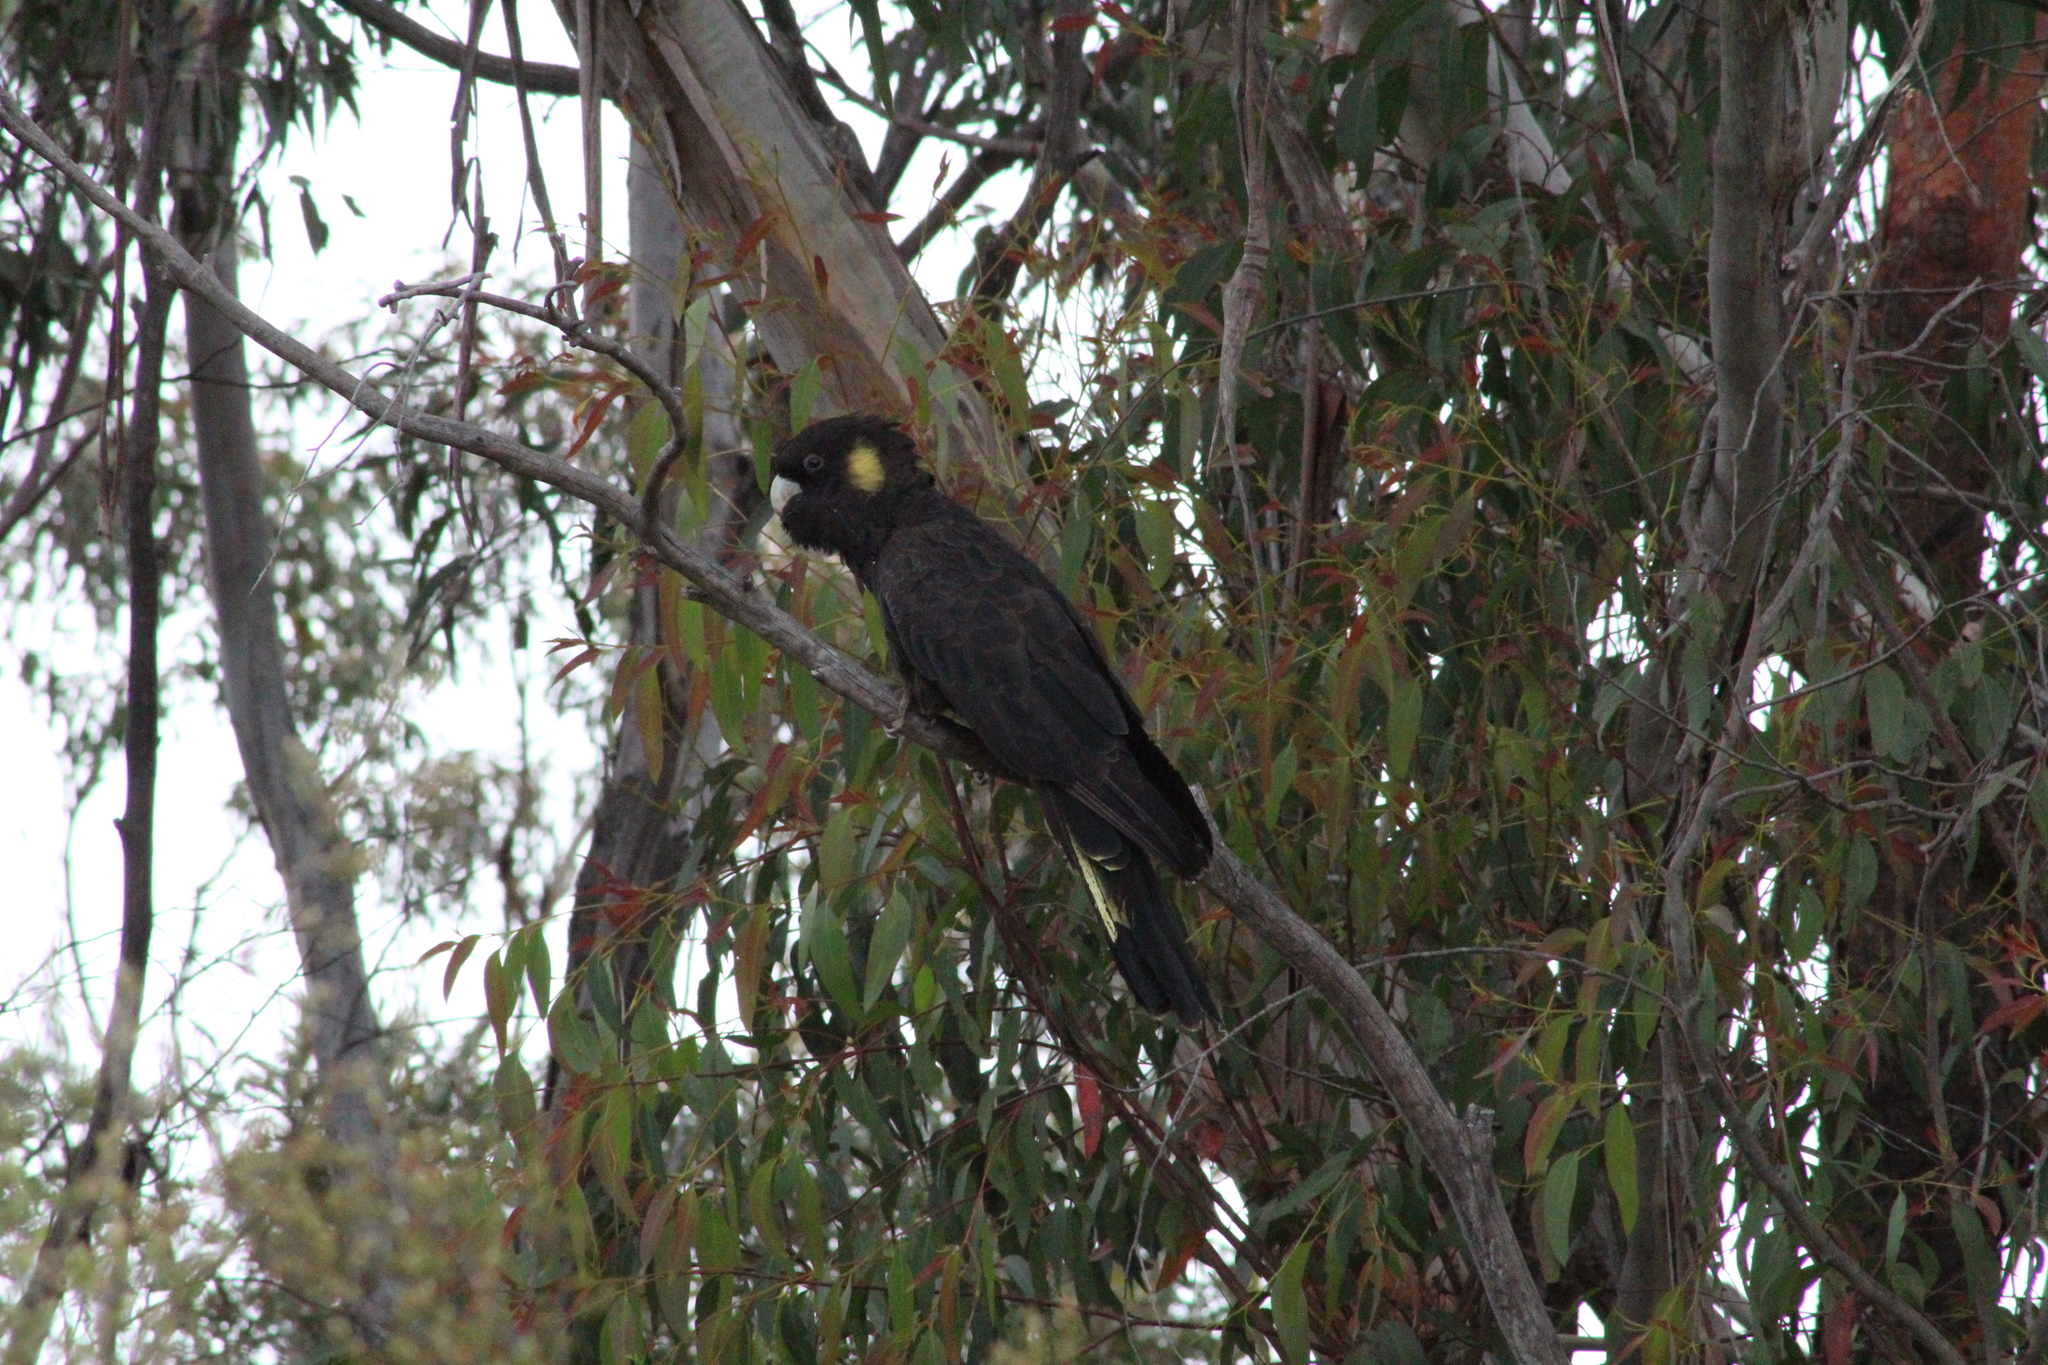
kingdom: Animalia
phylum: Chordata
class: Aves
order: Psittaciformes
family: Cacatuidae
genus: Zanda
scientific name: Zanda funerea
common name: Yellow-tailed black-cockatoo
